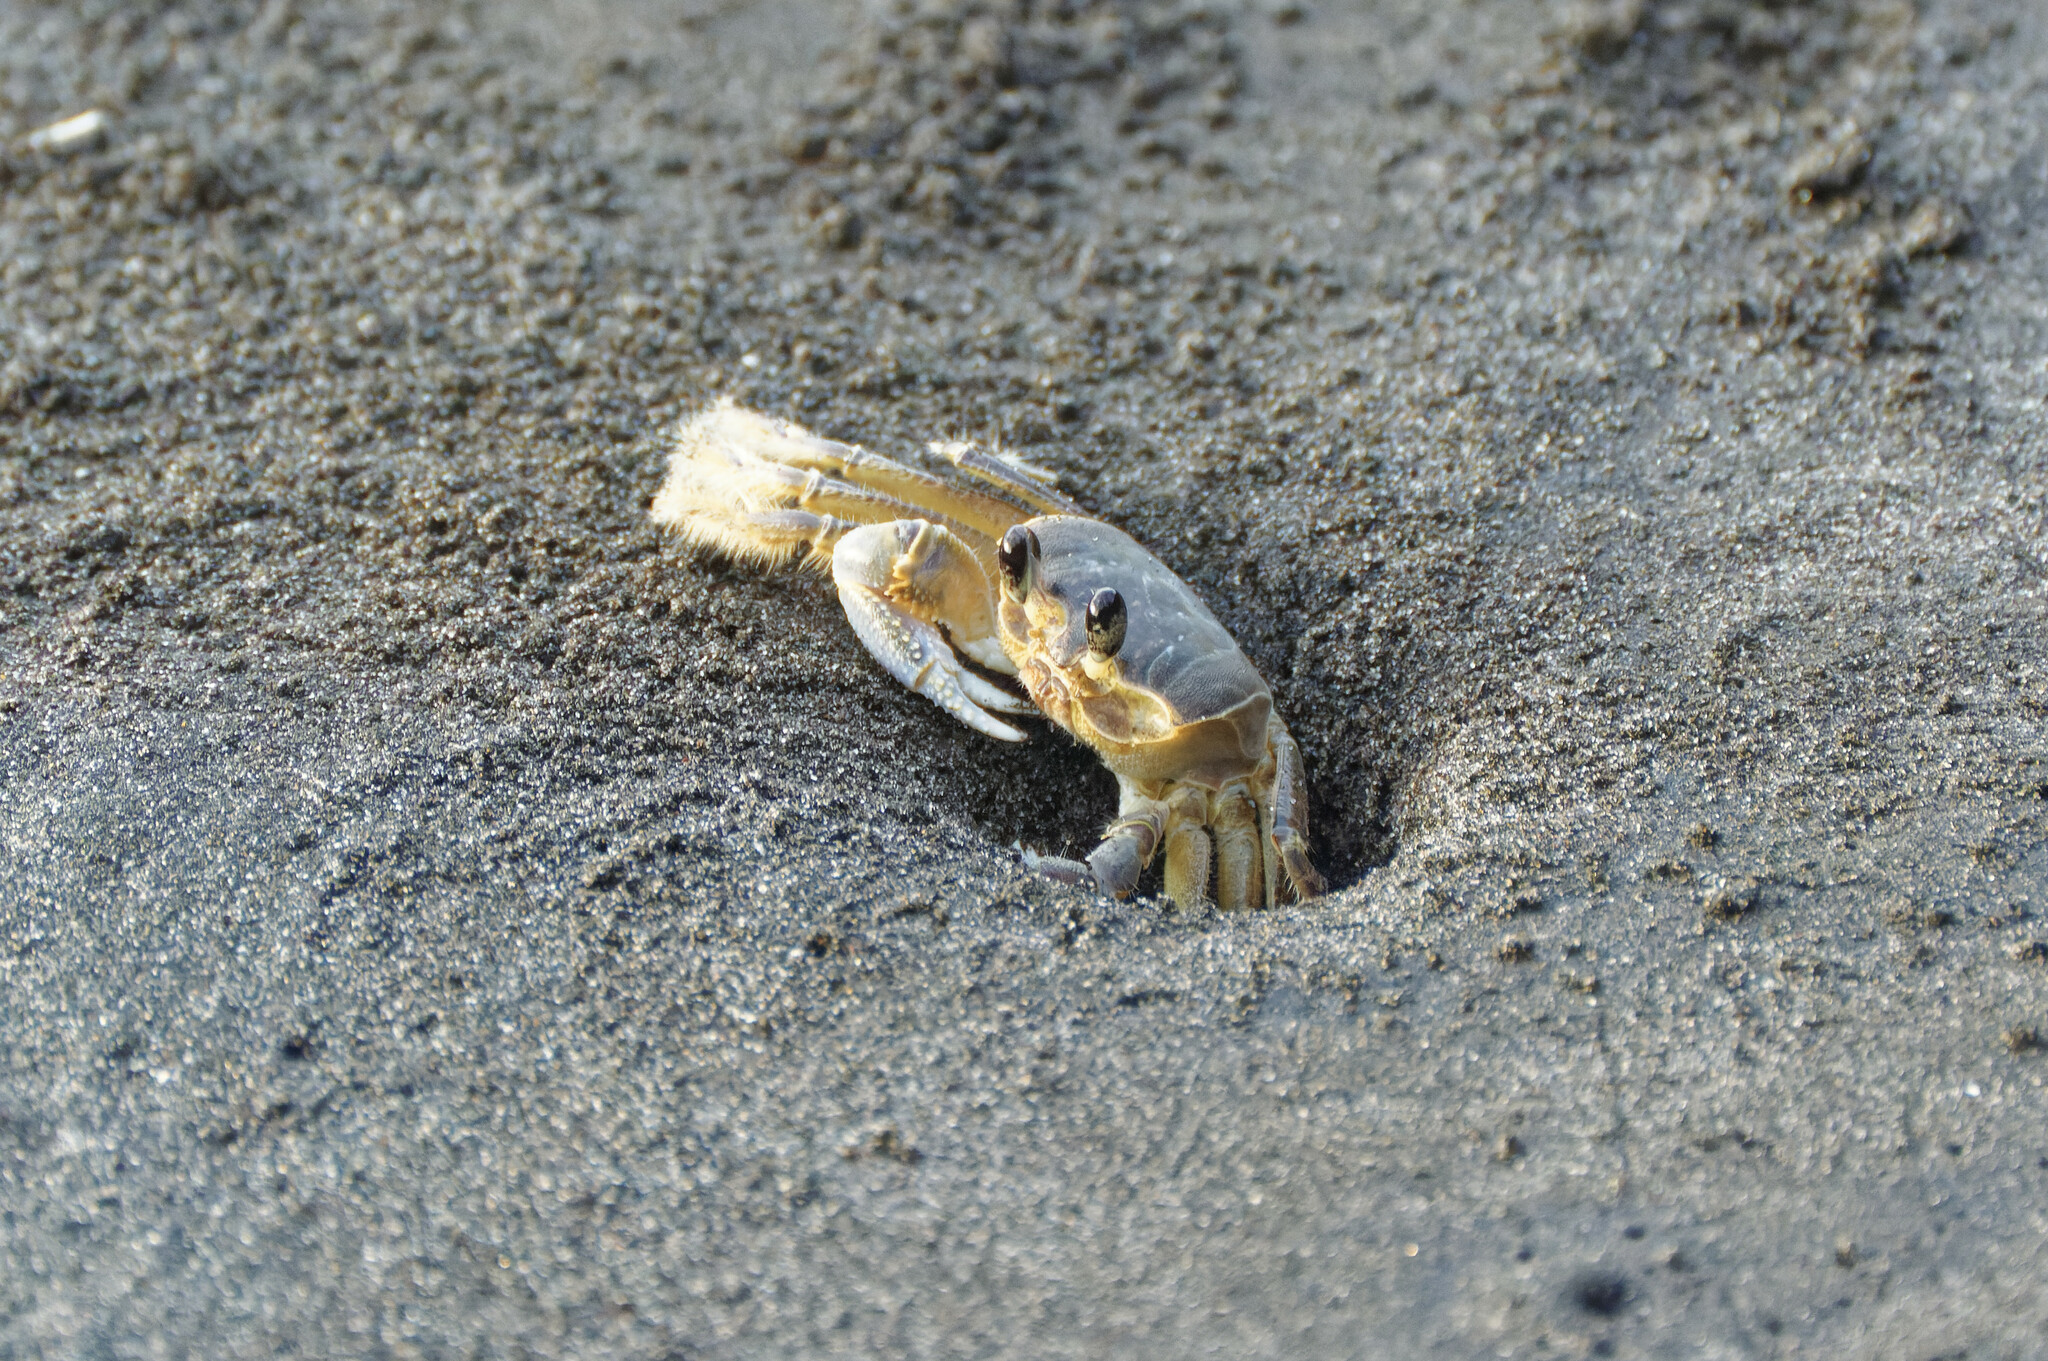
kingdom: Animalia
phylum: Arthropoda
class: Malacostraca
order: Decapoda
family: Ocypodidae
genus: Ocypode
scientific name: Ocypode quadrata
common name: Ghost crab
